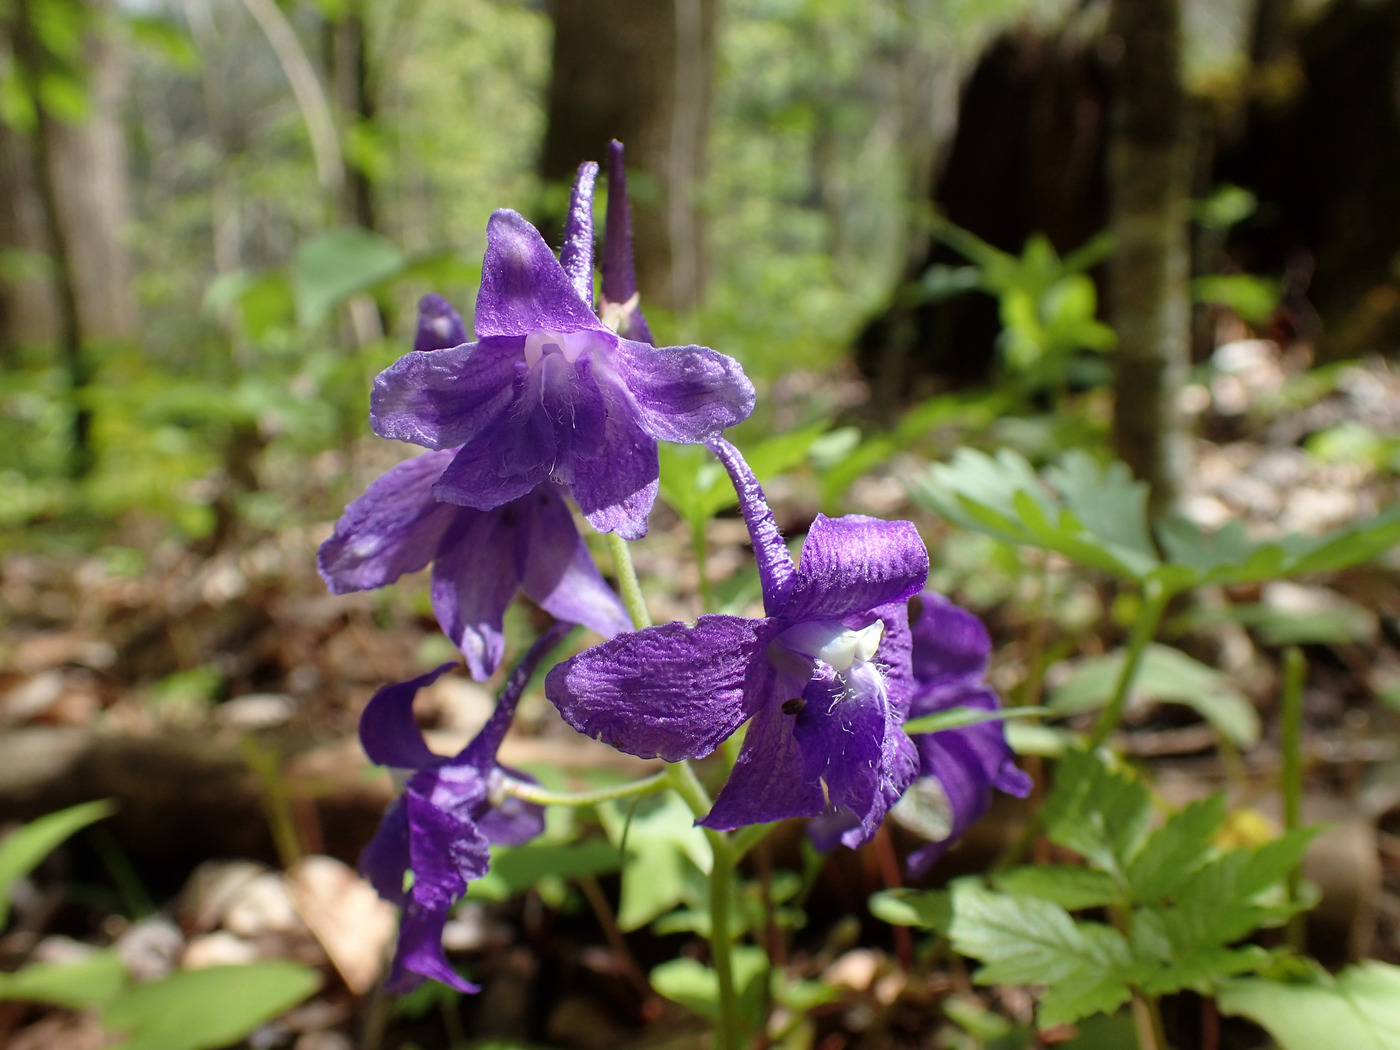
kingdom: Plantae
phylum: Tracheophyta
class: Magnoliopsida
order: Ranunculales
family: Ranunculaceae
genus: Delphinium
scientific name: Delphinium tricorne
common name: Dwarf larkspur
